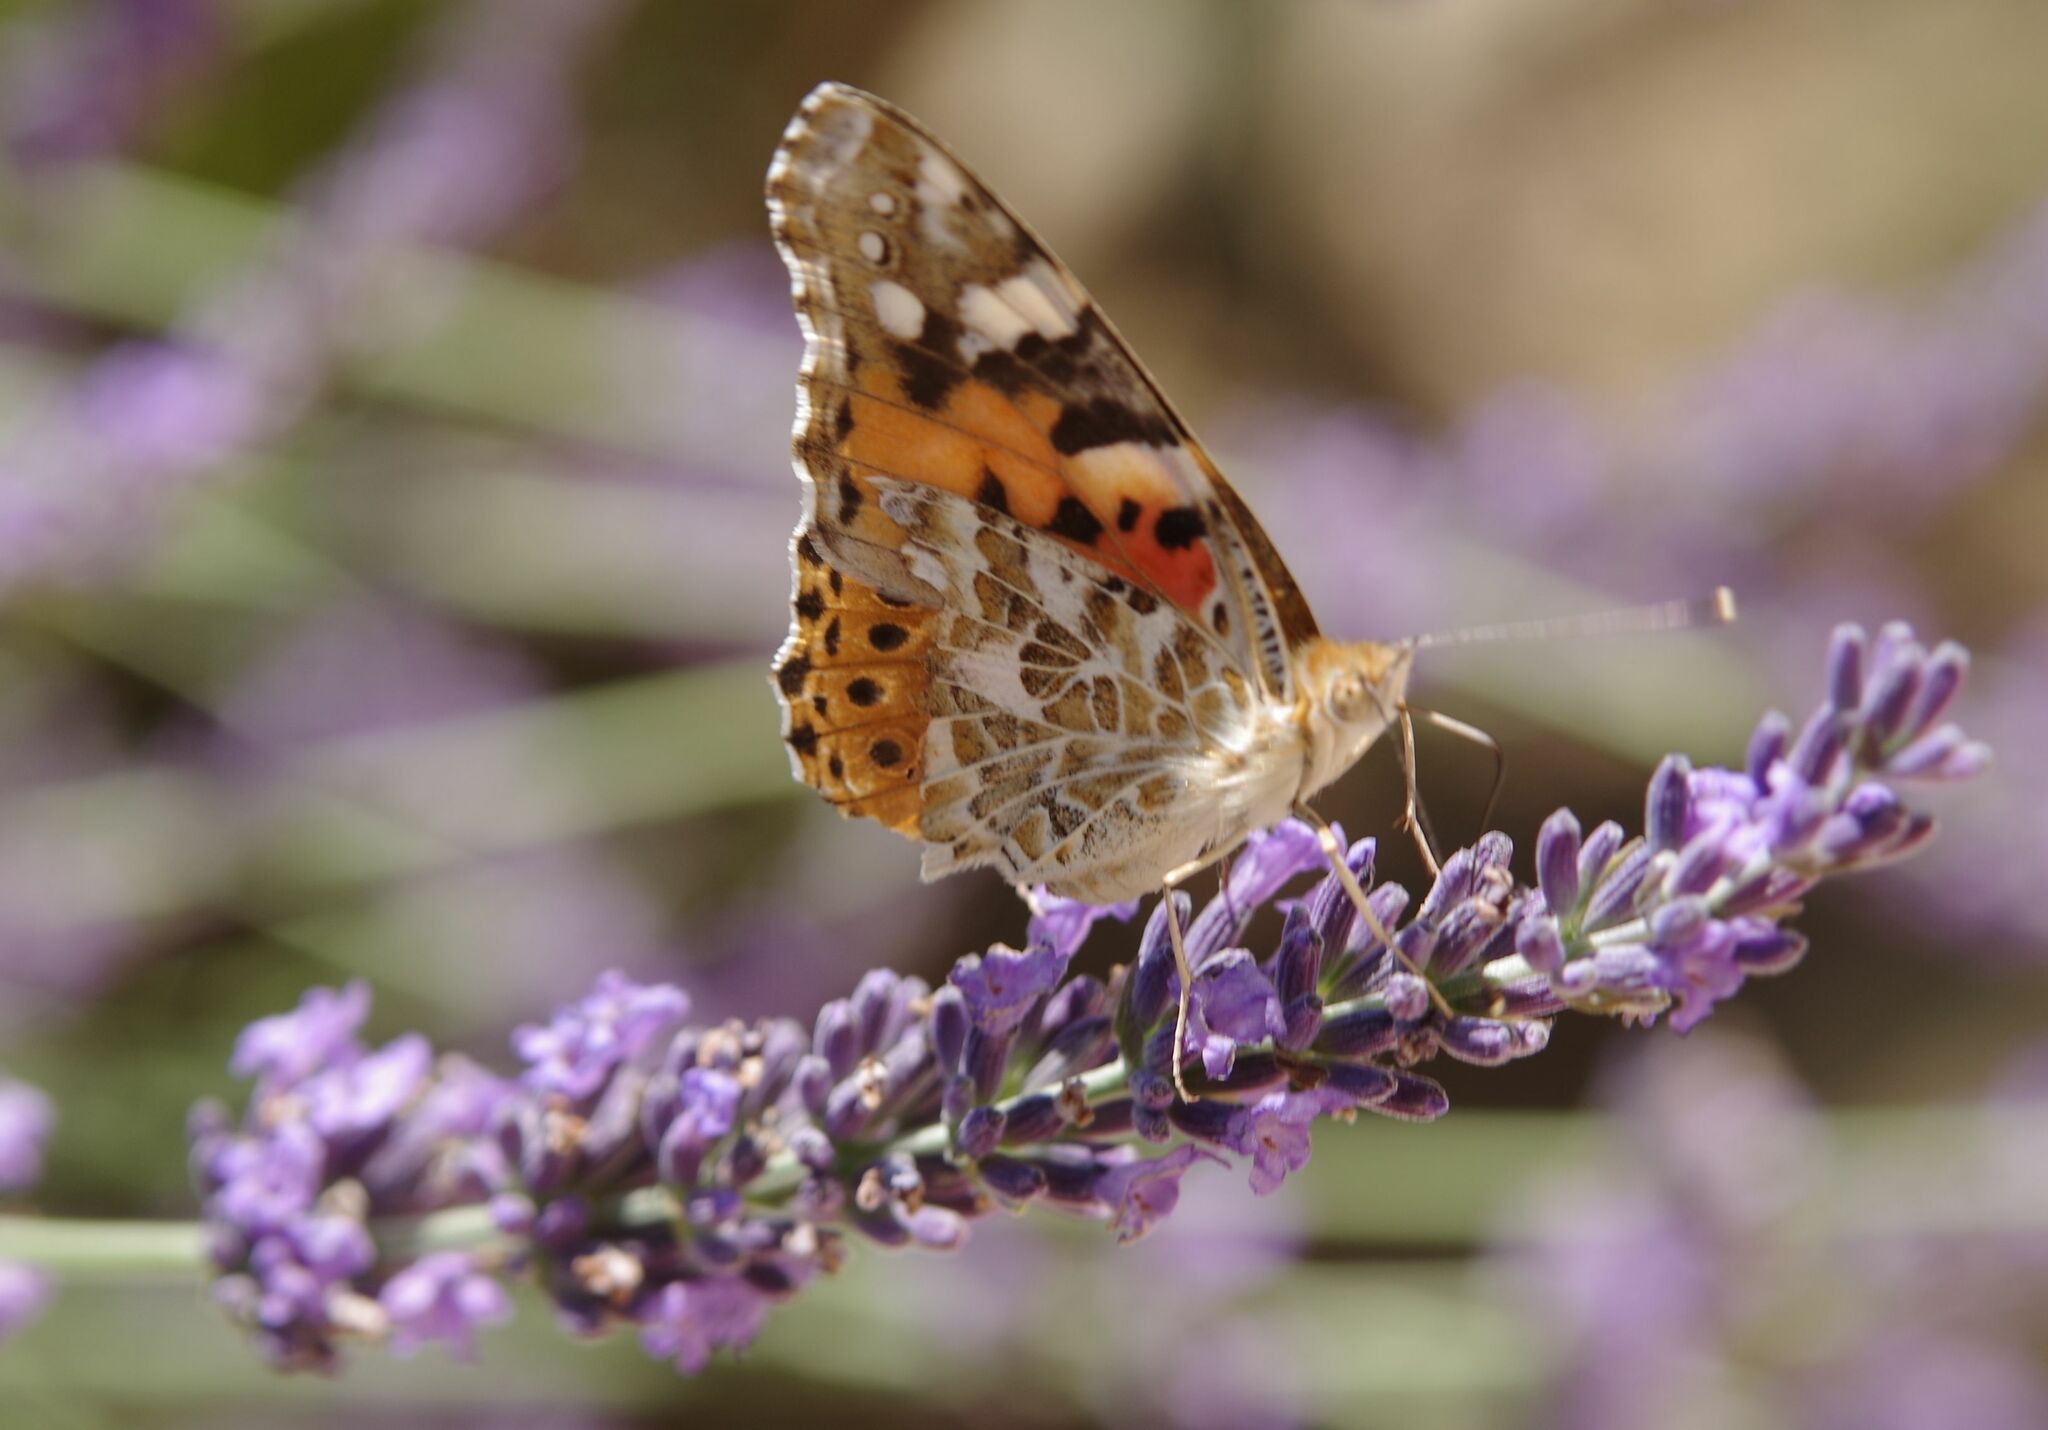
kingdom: Animalia
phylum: Arthropoda
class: Insecta
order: Lepidoptera
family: Nymphalidae
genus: Vanessa
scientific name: Vanessa cardui
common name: Painted lady
